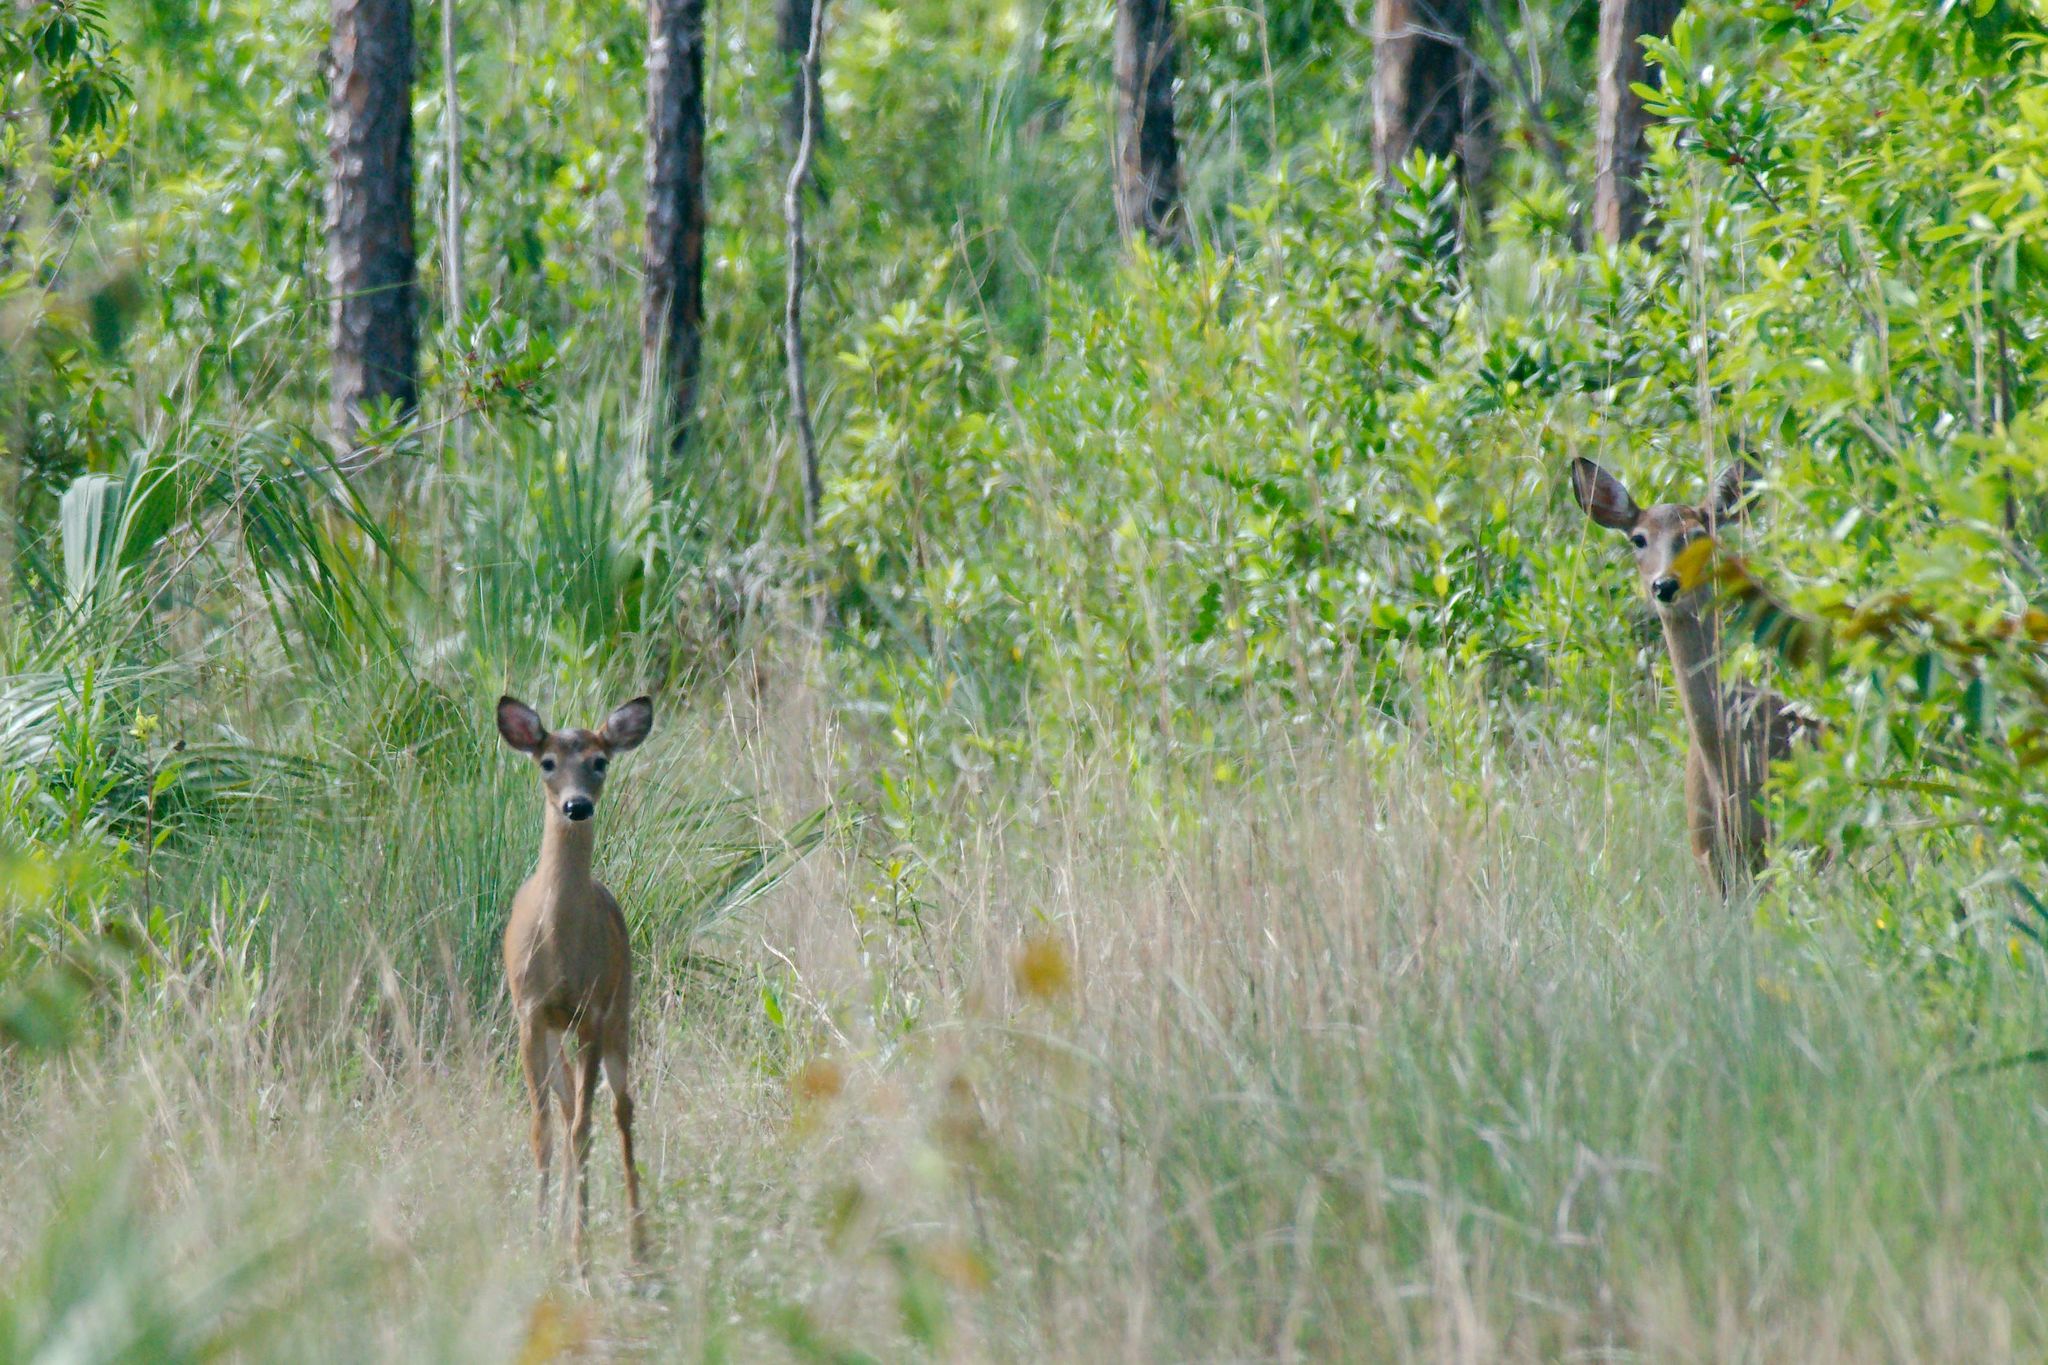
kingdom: Animalia
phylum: Chordata
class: Mammalia
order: Artiodactyla
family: Cervidae
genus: Odocoileus
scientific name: Odocoileus virginianus
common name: White-tailed deer
